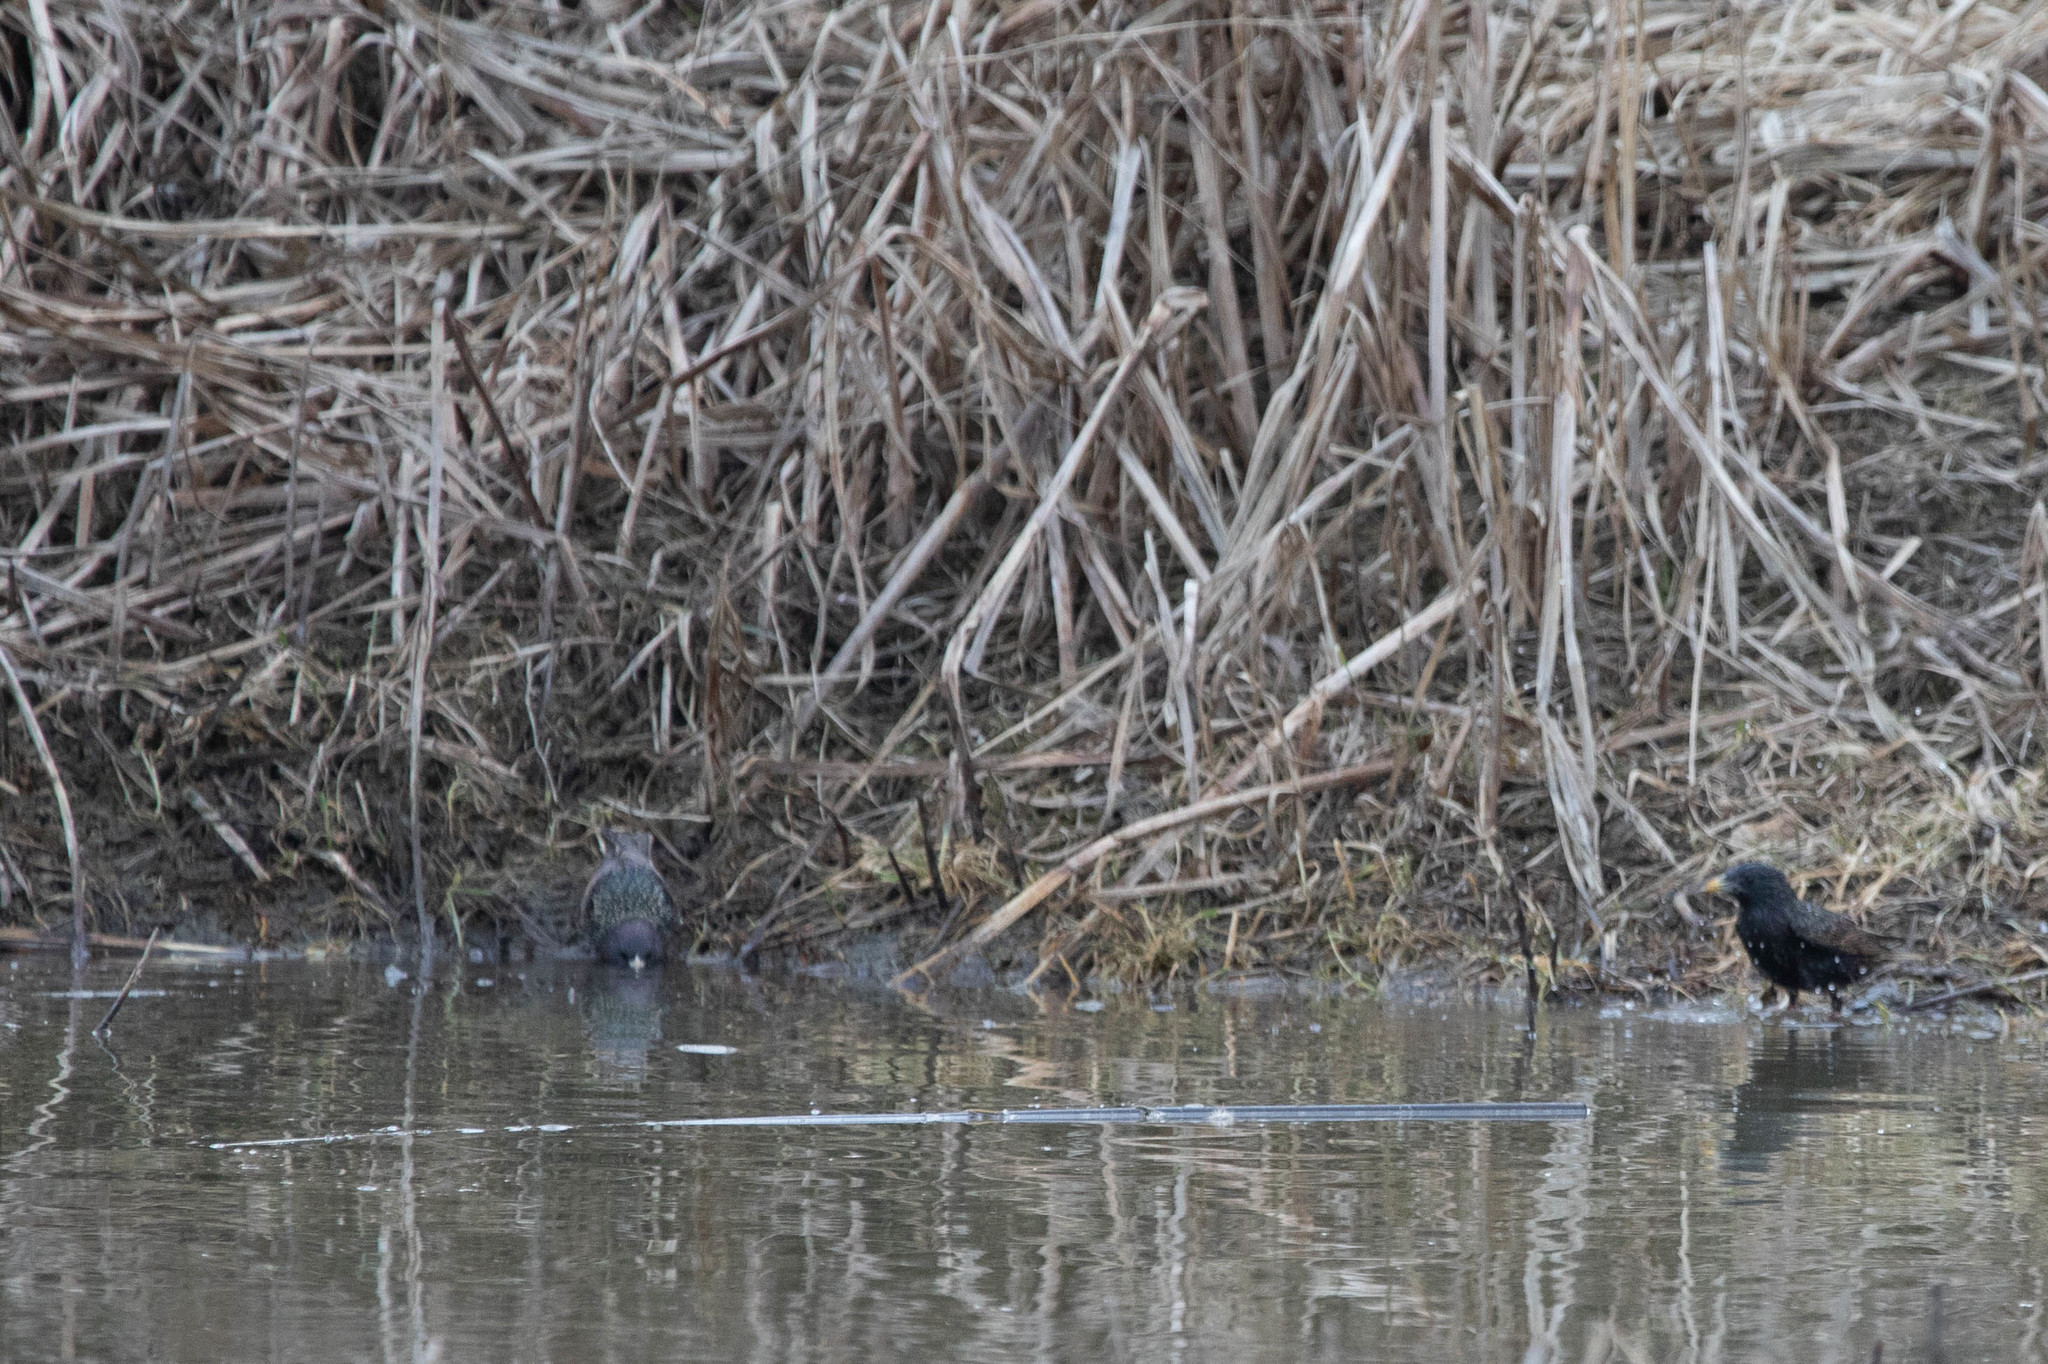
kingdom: Animalia
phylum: Chordata
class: Aves
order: Passeriformes
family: Sturnidae
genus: Sturnus
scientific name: Sturnus vulgaris
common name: Common starling
